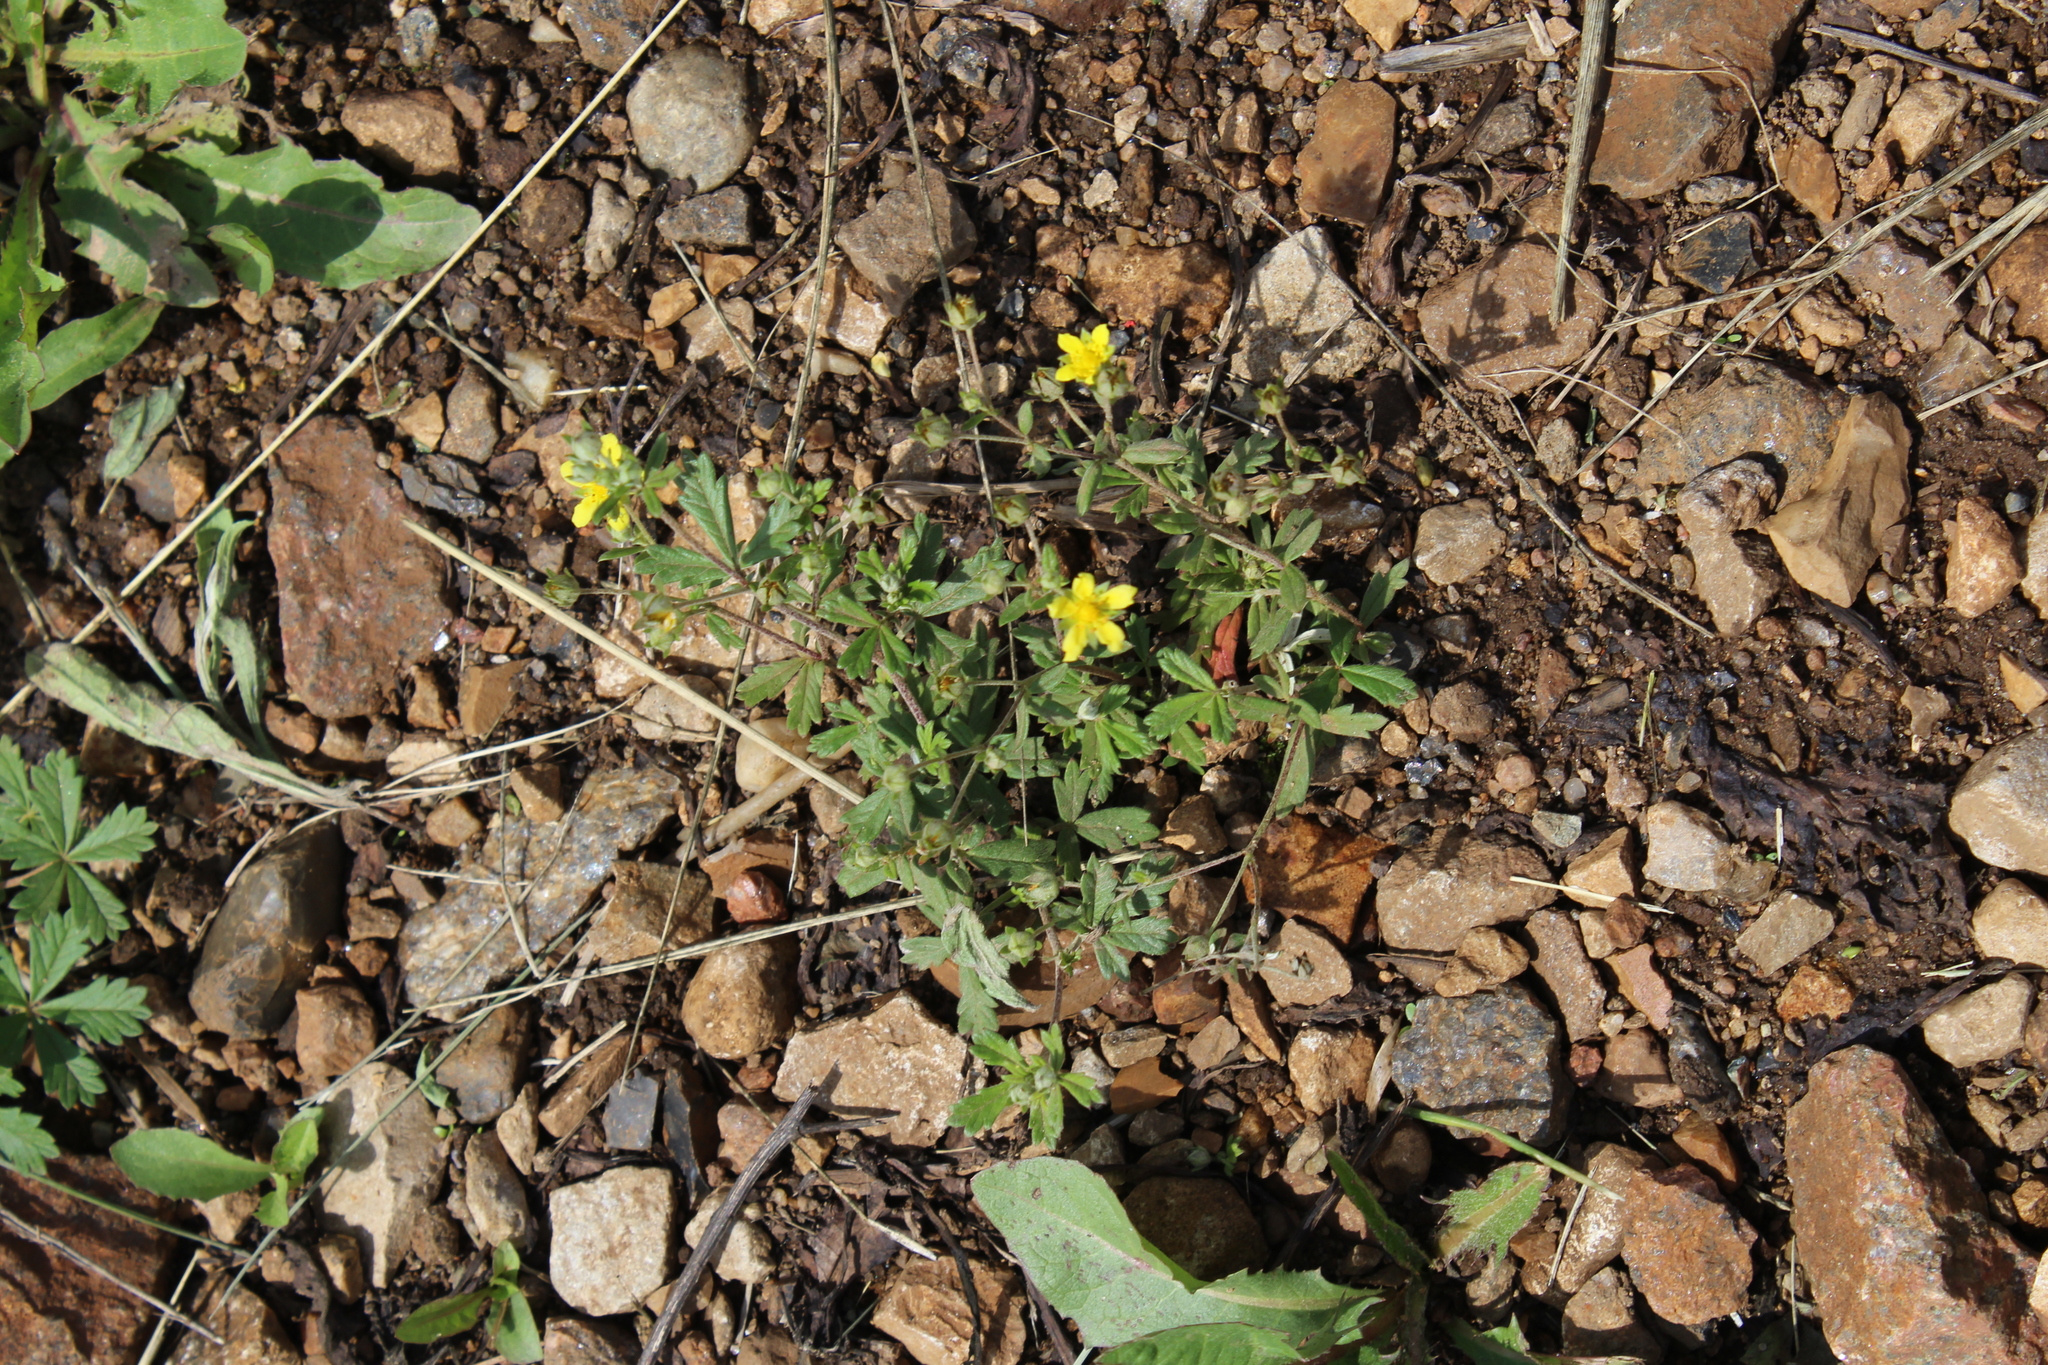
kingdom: Plantae
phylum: Tracheophyta
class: Magnoliopsida
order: Rosales
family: Rosaceae
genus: Potentilla
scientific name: Potentilla argentea
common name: Hoary cinquefoil
